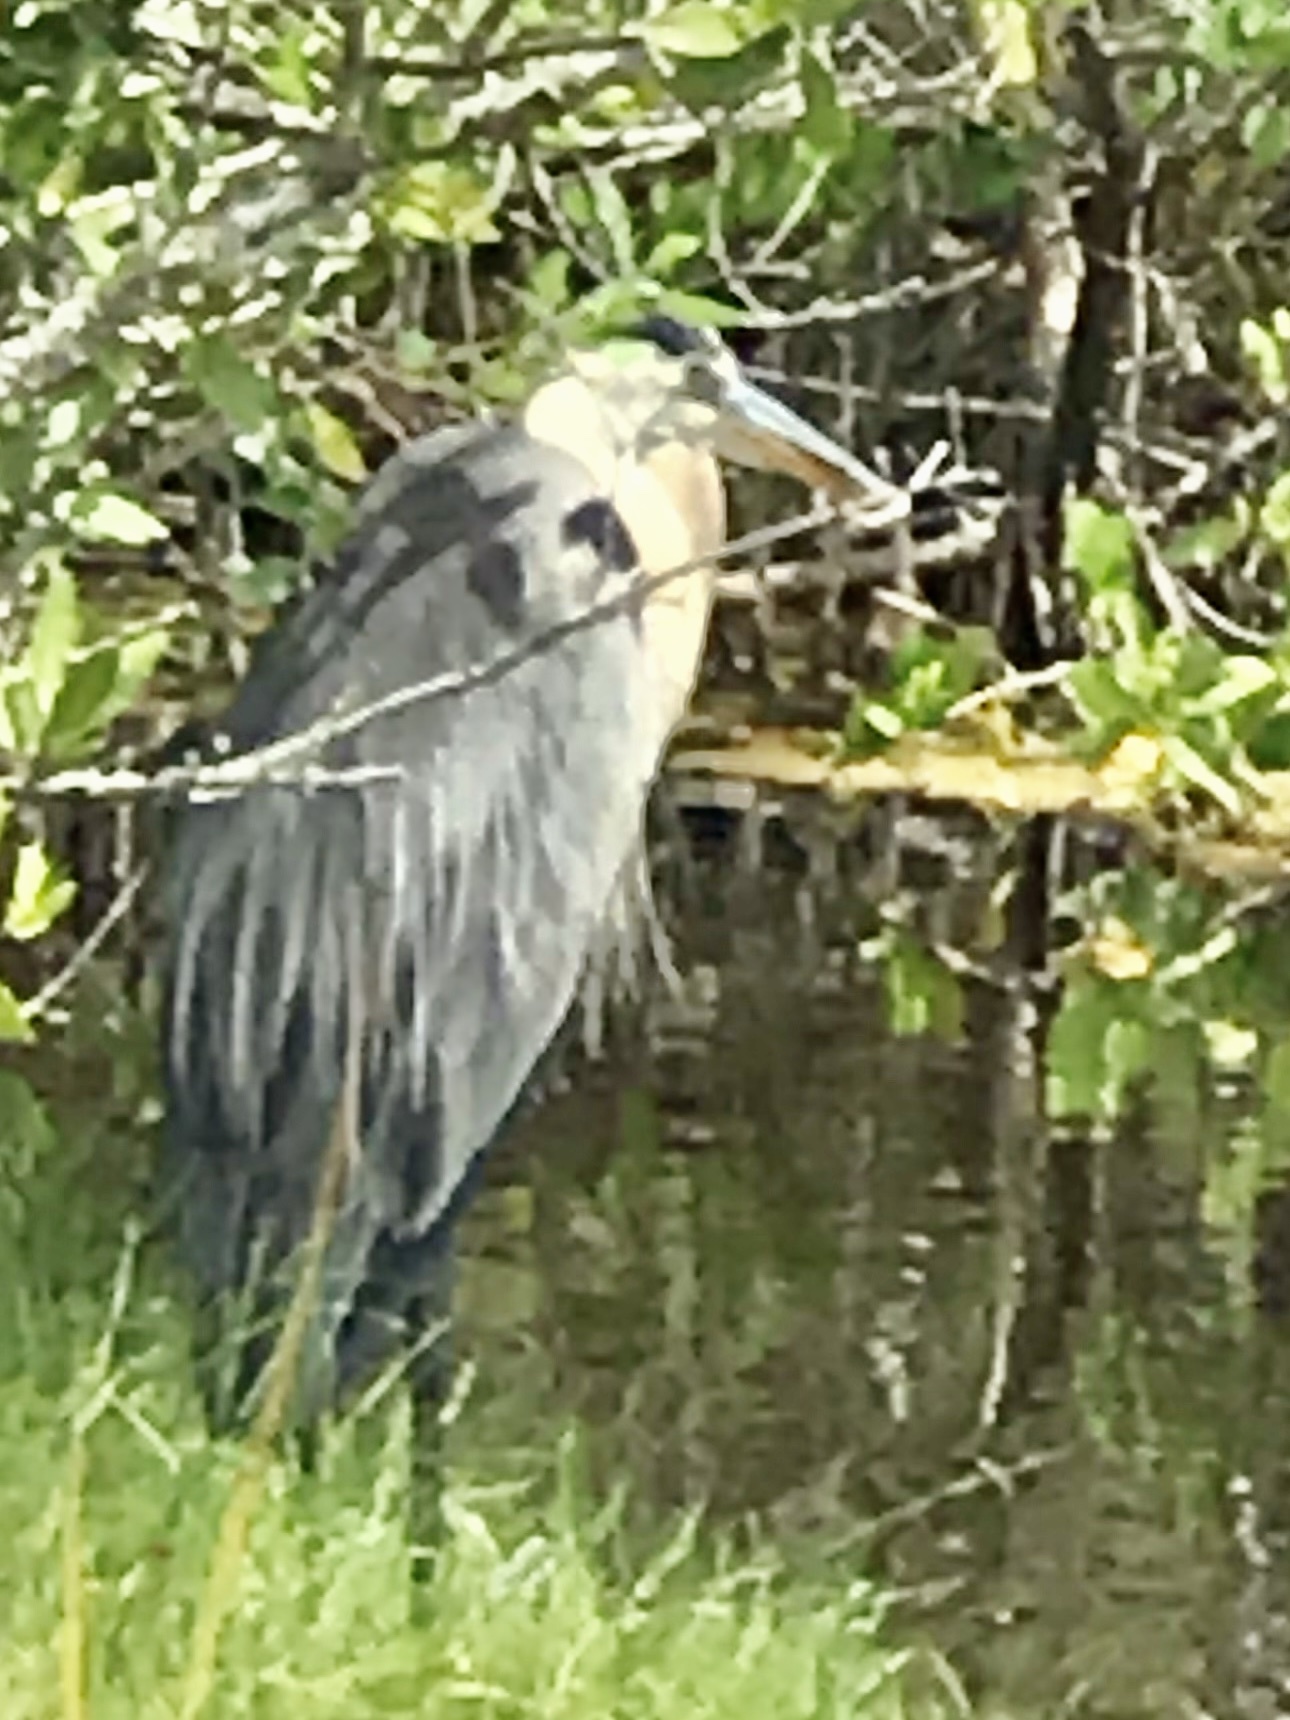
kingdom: Animalia
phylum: Chordata
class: Aves
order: Pelecaniformes
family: Ardeidae
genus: Ardea
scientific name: Ardea herodias
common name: Great blue heron
